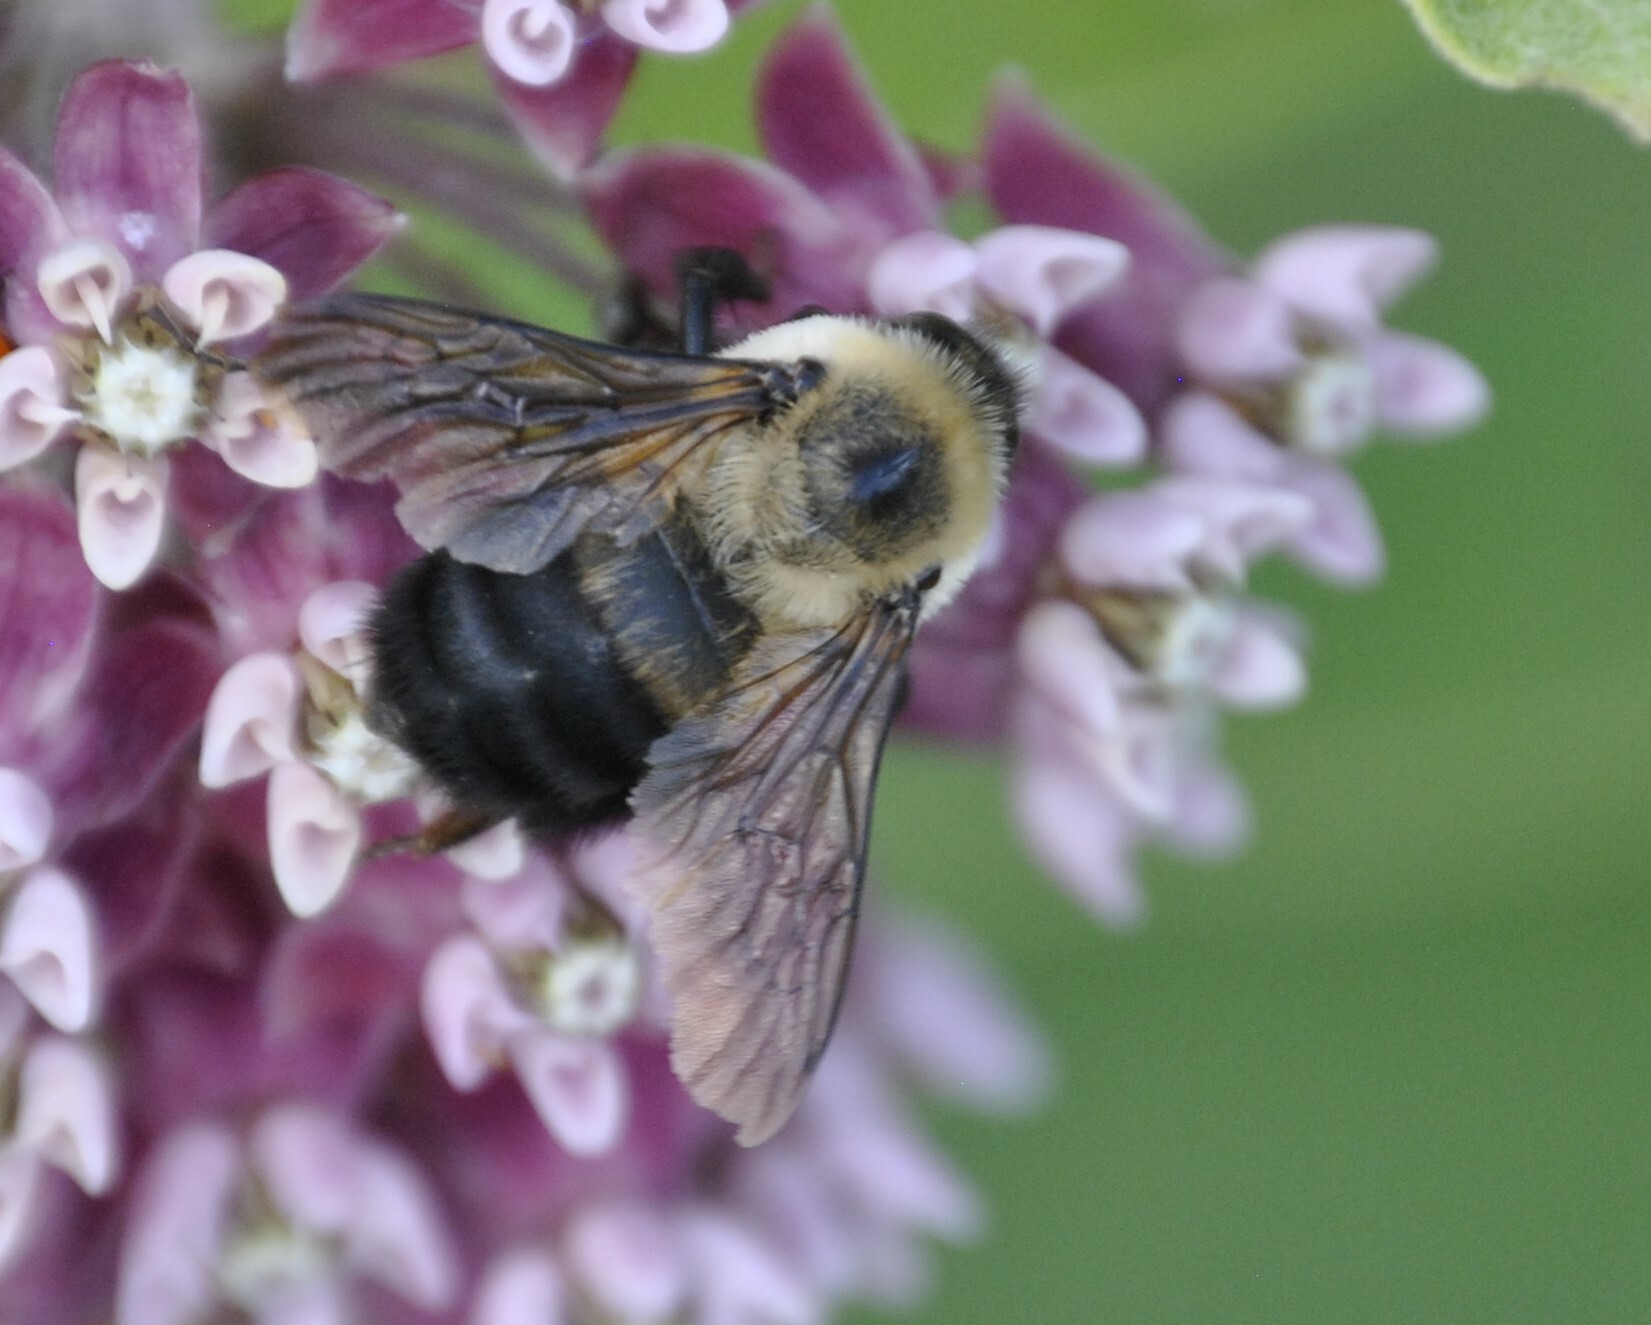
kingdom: Animalia
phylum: Arthropoda
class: Insecta
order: Hymenoptera
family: Apidae
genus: Bombus
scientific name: Bombus griseocollis
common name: Brown-belted bumble bee
